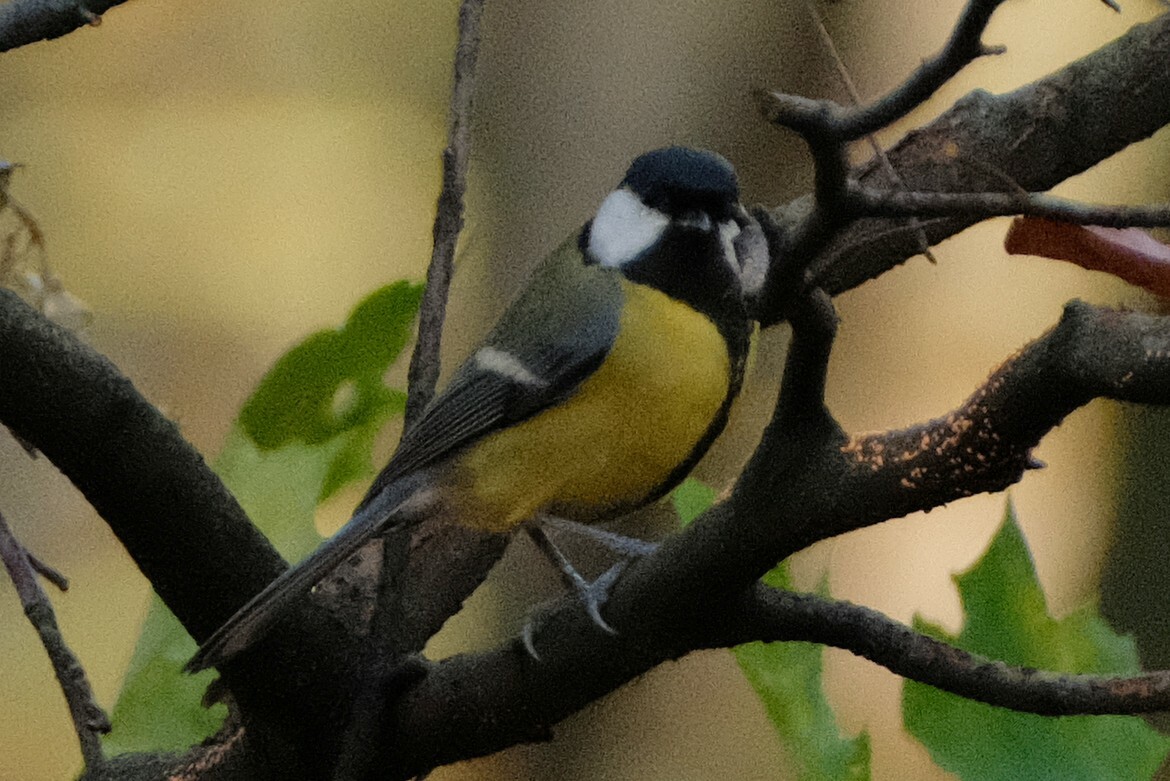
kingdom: Animalia
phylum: Chordata
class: Aves
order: Passeriformes
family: Paridae
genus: Parus
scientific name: Parus major
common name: Great tit
